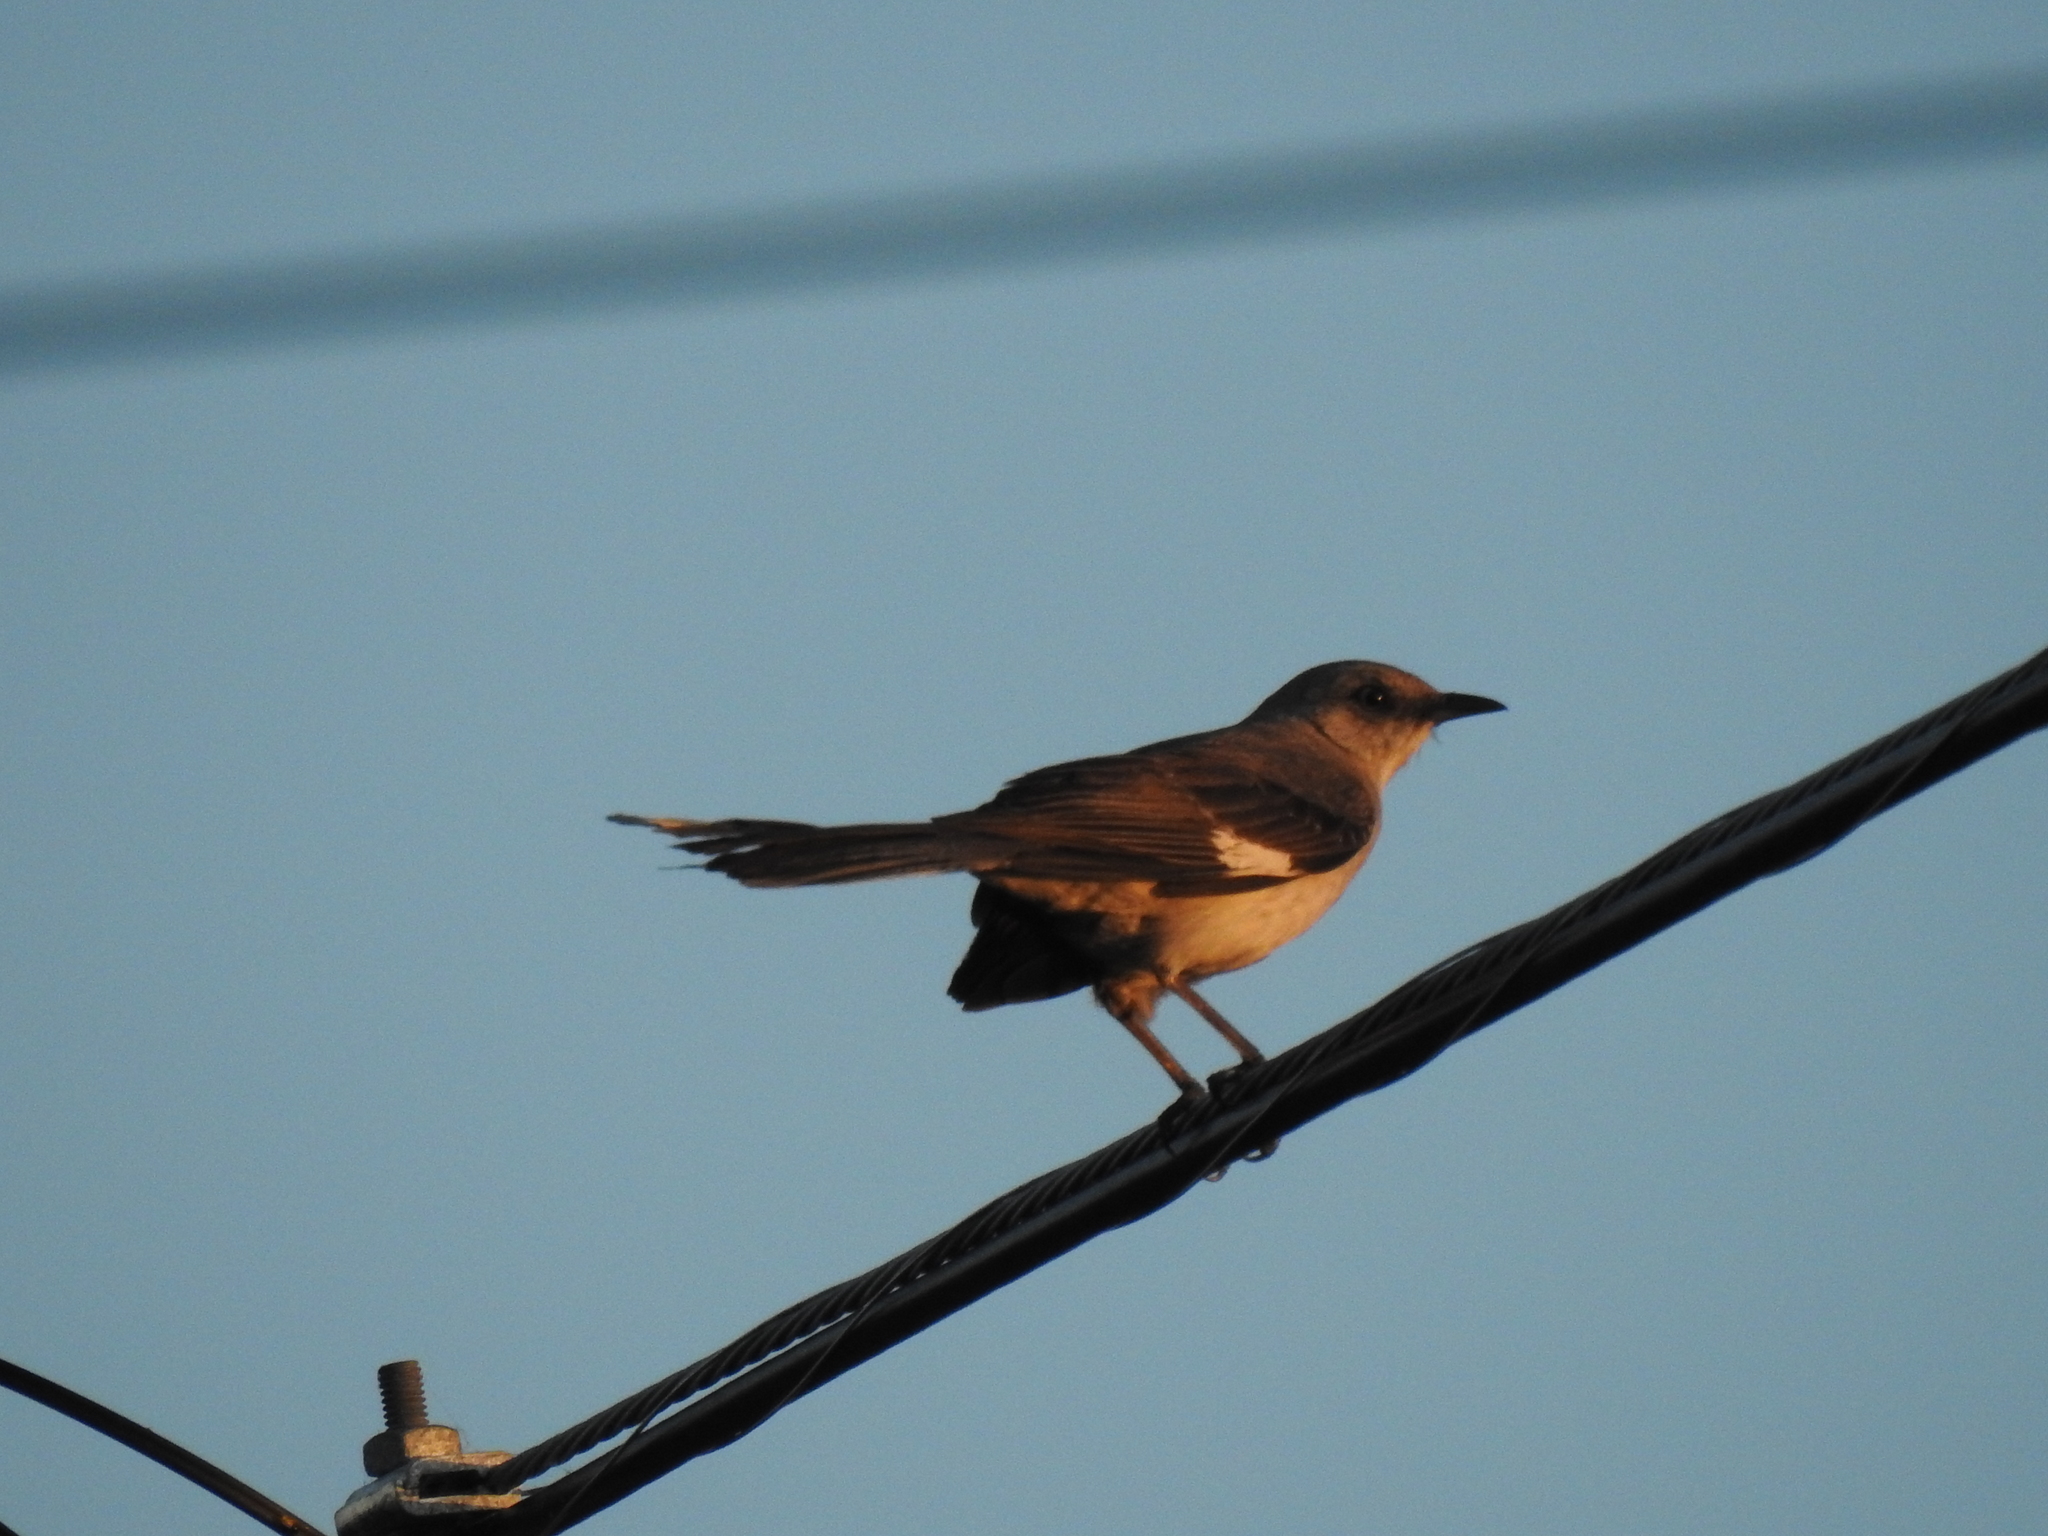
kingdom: Animalia
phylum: Chordata
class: Aves
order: Passeriformes
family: Mimidae
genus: Mimus
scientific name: Mimus polyglottos
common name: Northern mockingbird
